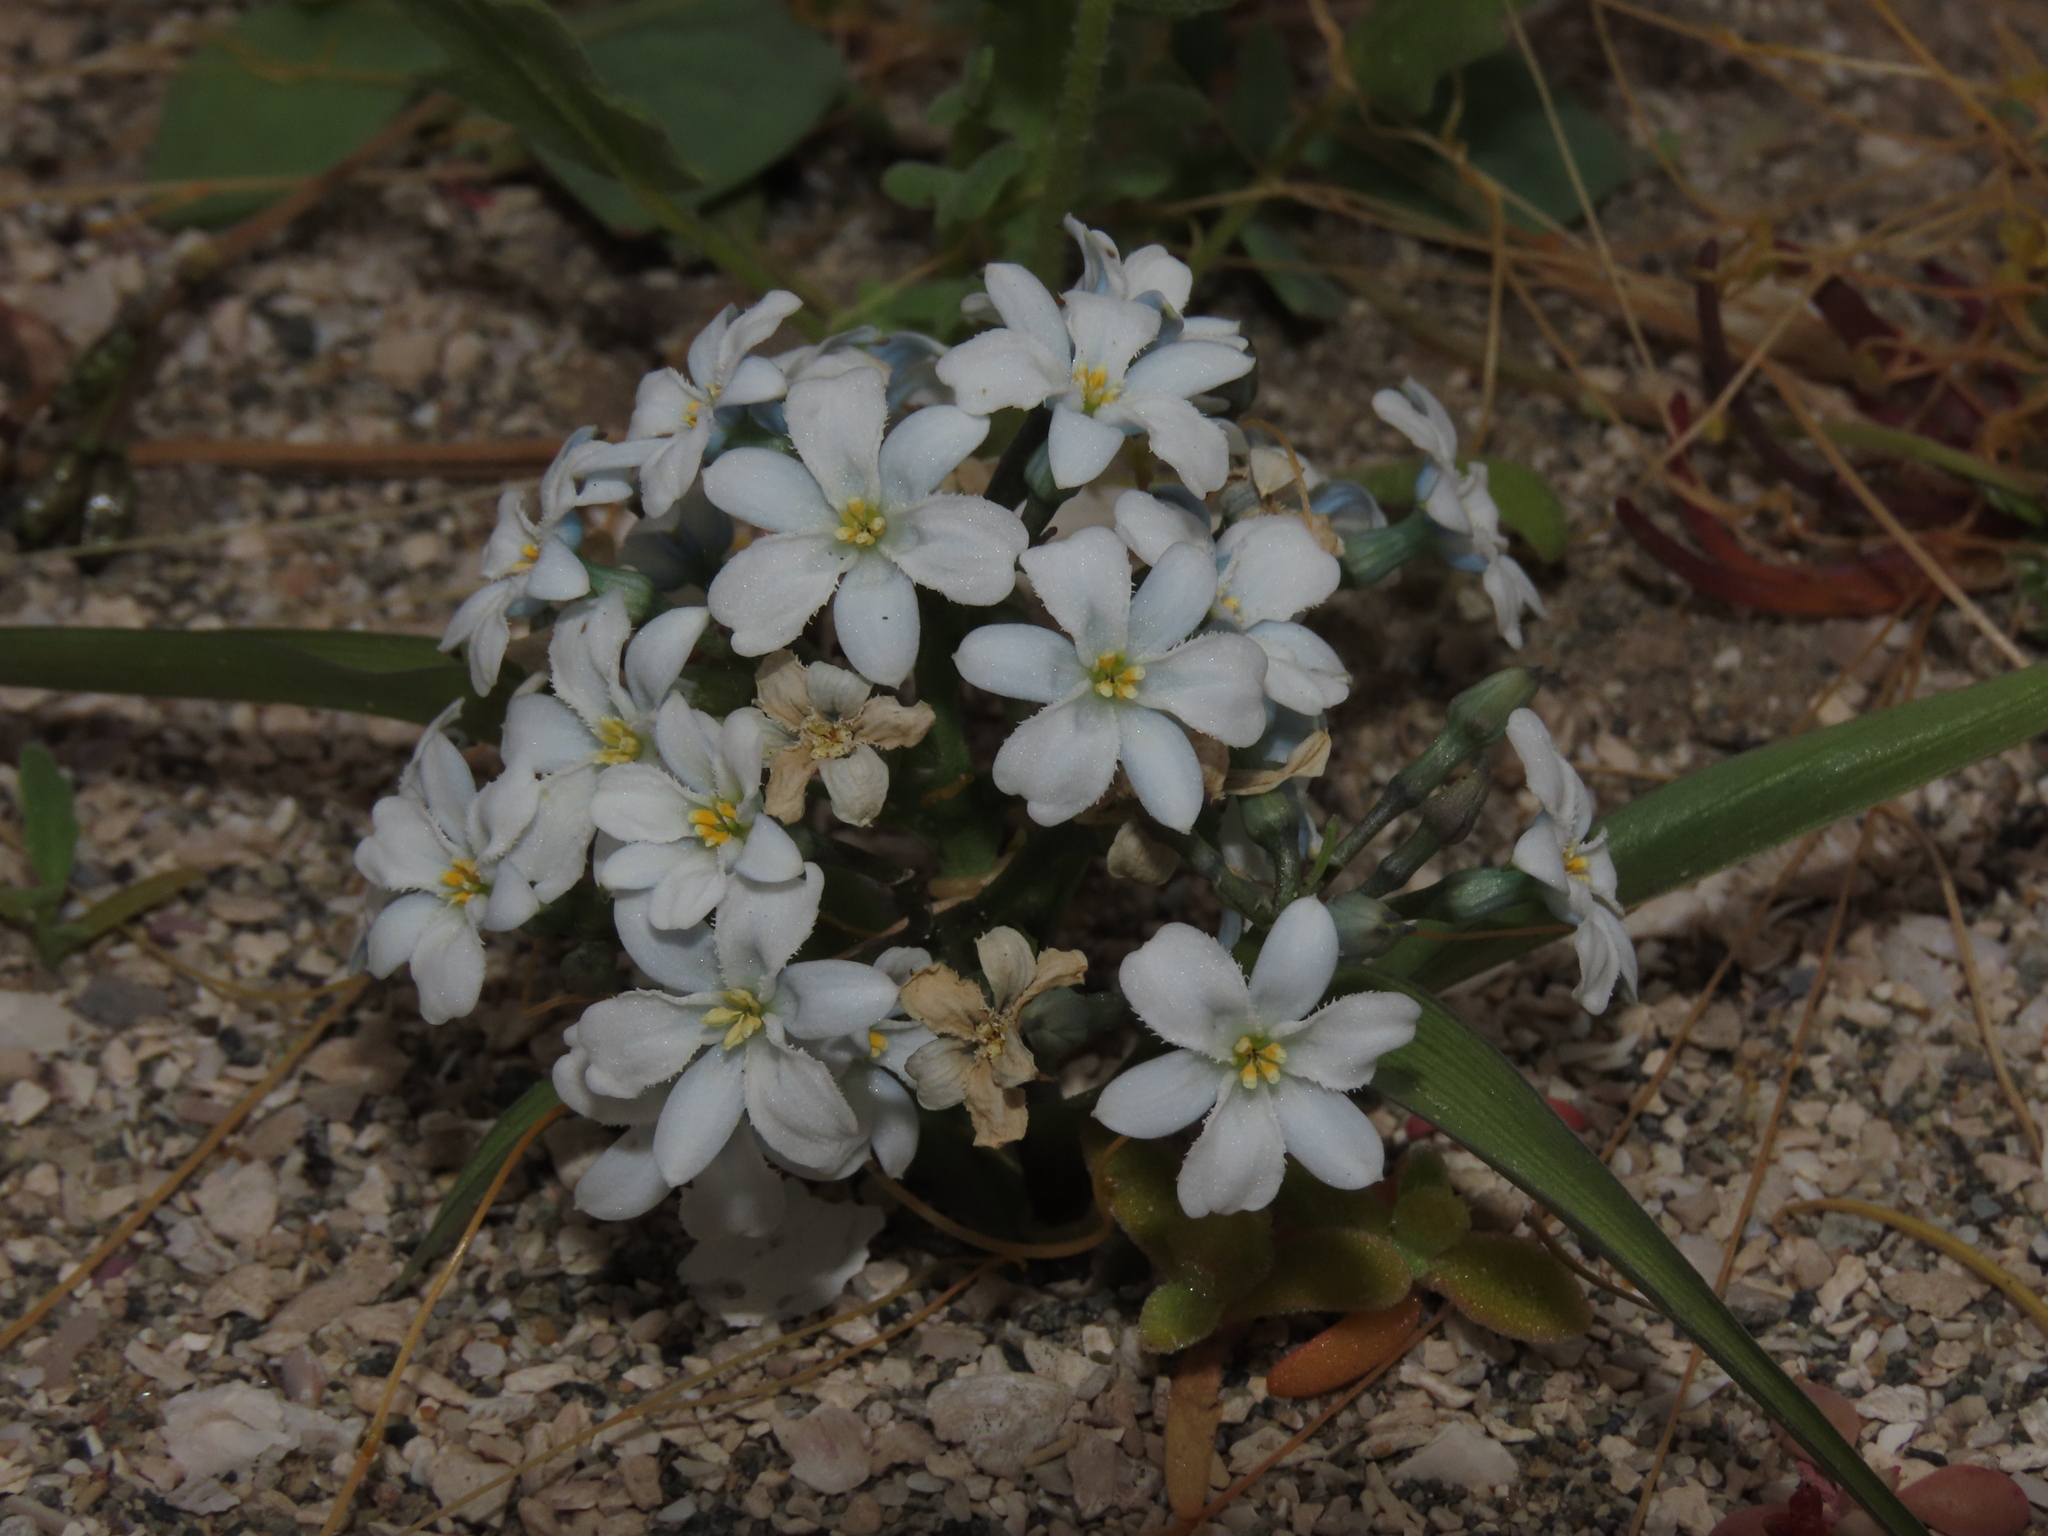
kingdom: Plantae
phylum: Tracheophyta
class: Liliopsida
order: Asparagales
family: Tecophilaeaceae
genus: Zephyra
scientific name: Zephyra compacta
